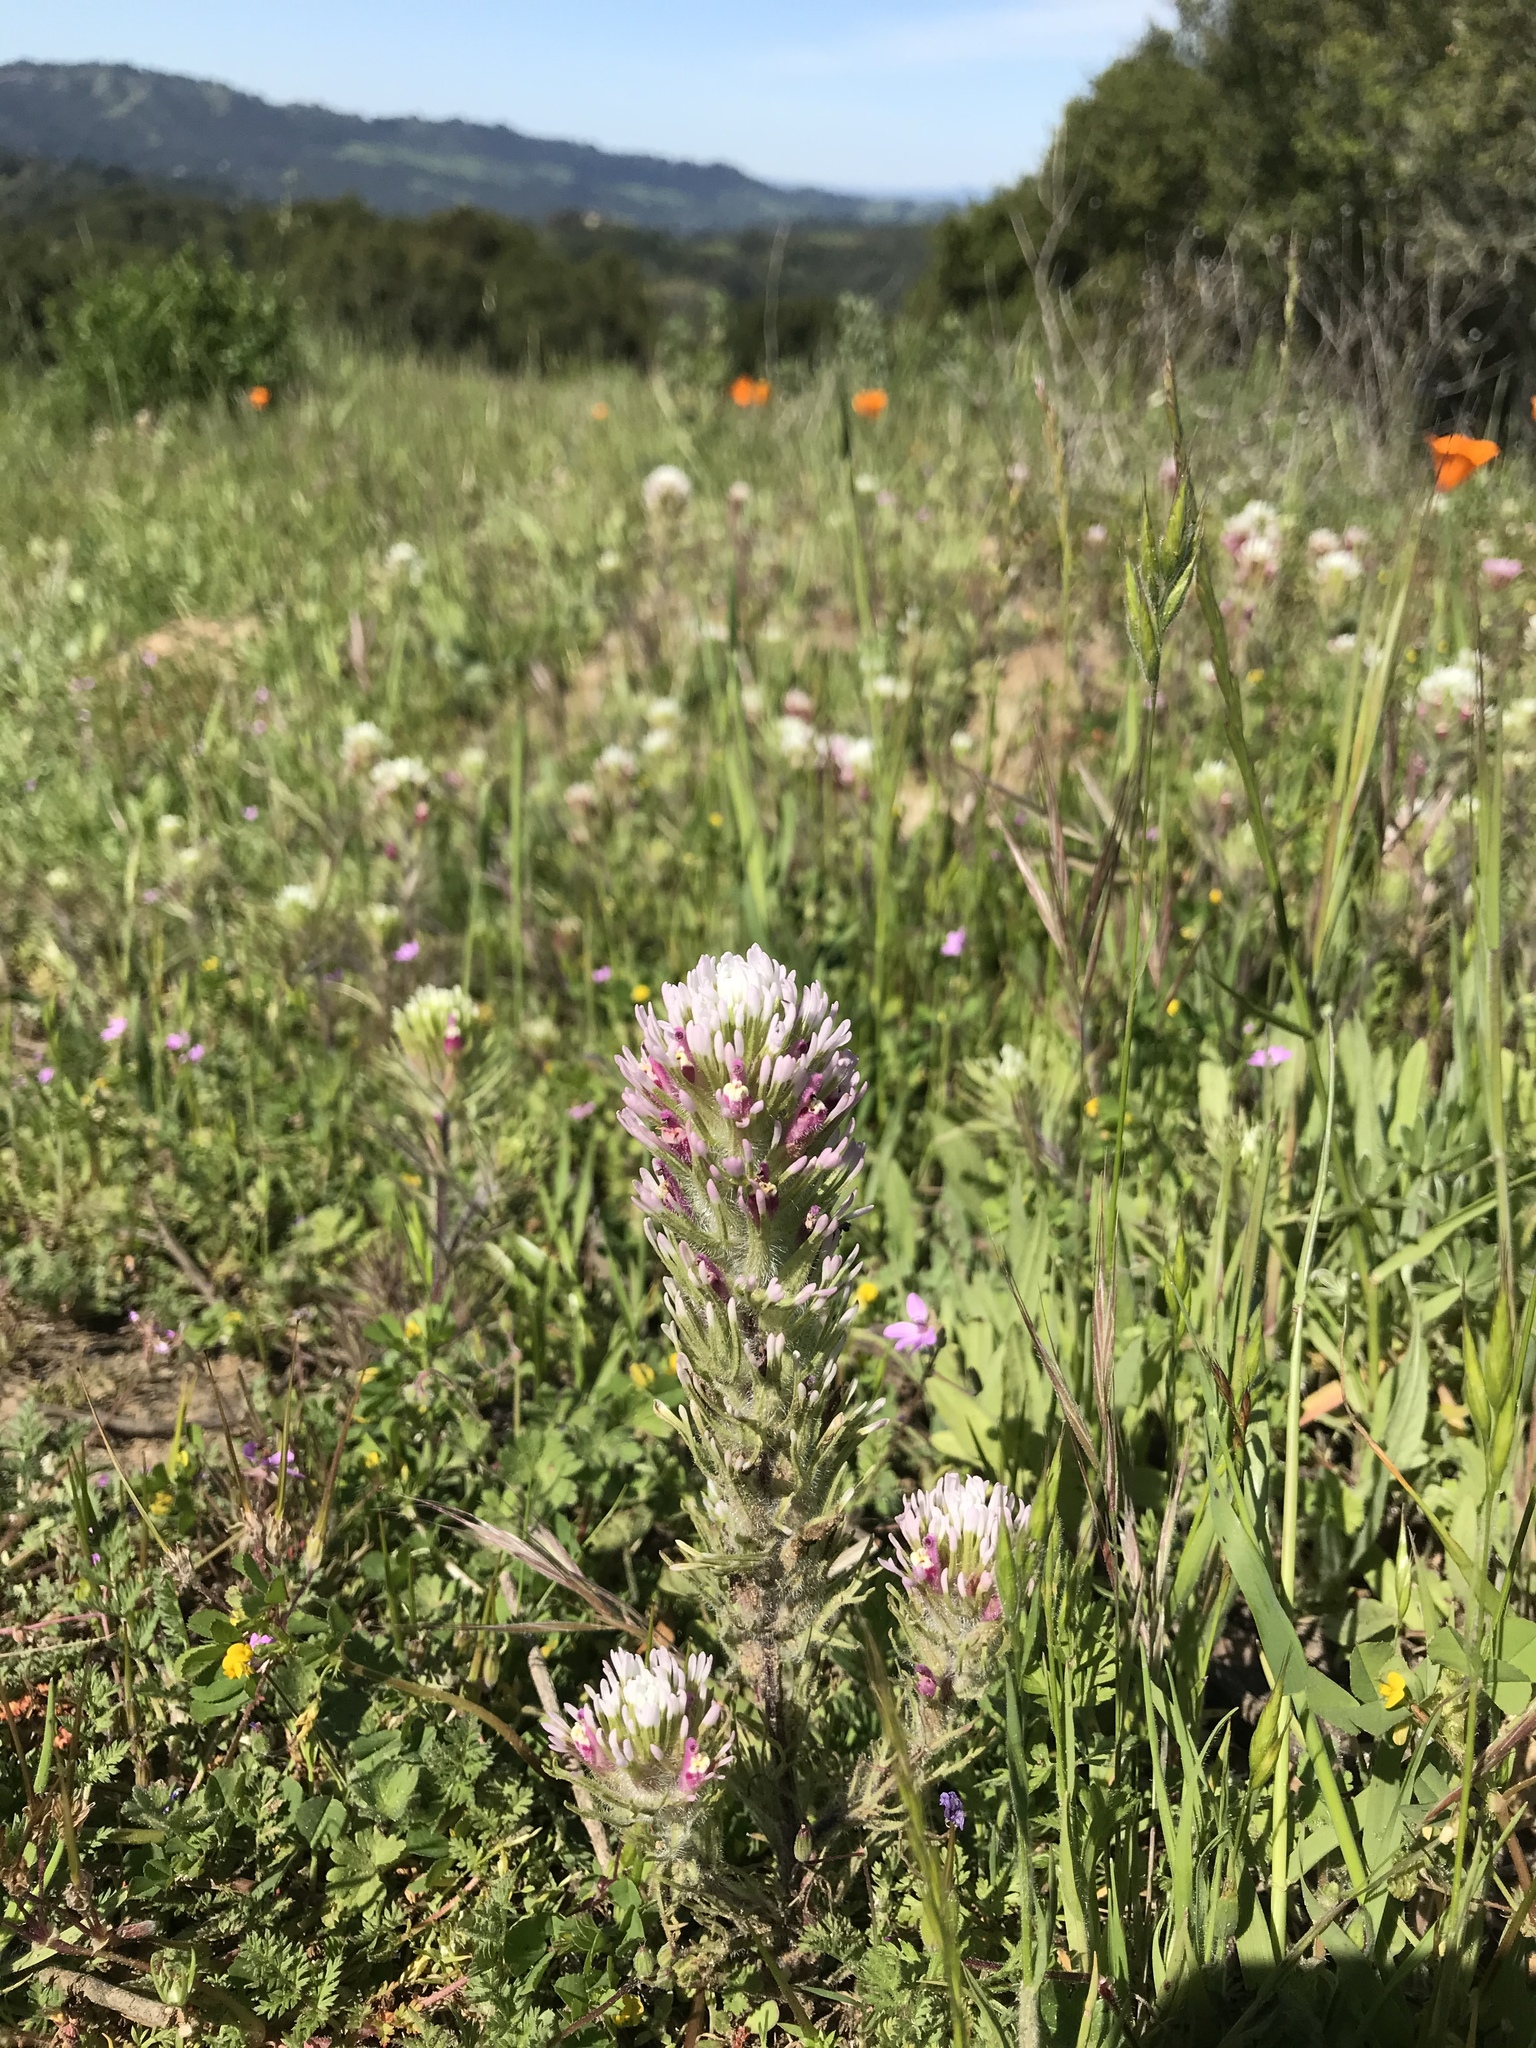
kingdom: Plantae
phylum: Tracheophyta
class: Magnoliopsida
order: Lamiales
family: Orobanchaceae
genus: Castilleja
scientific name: Castilleja exserta
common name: Purple owl-clover
